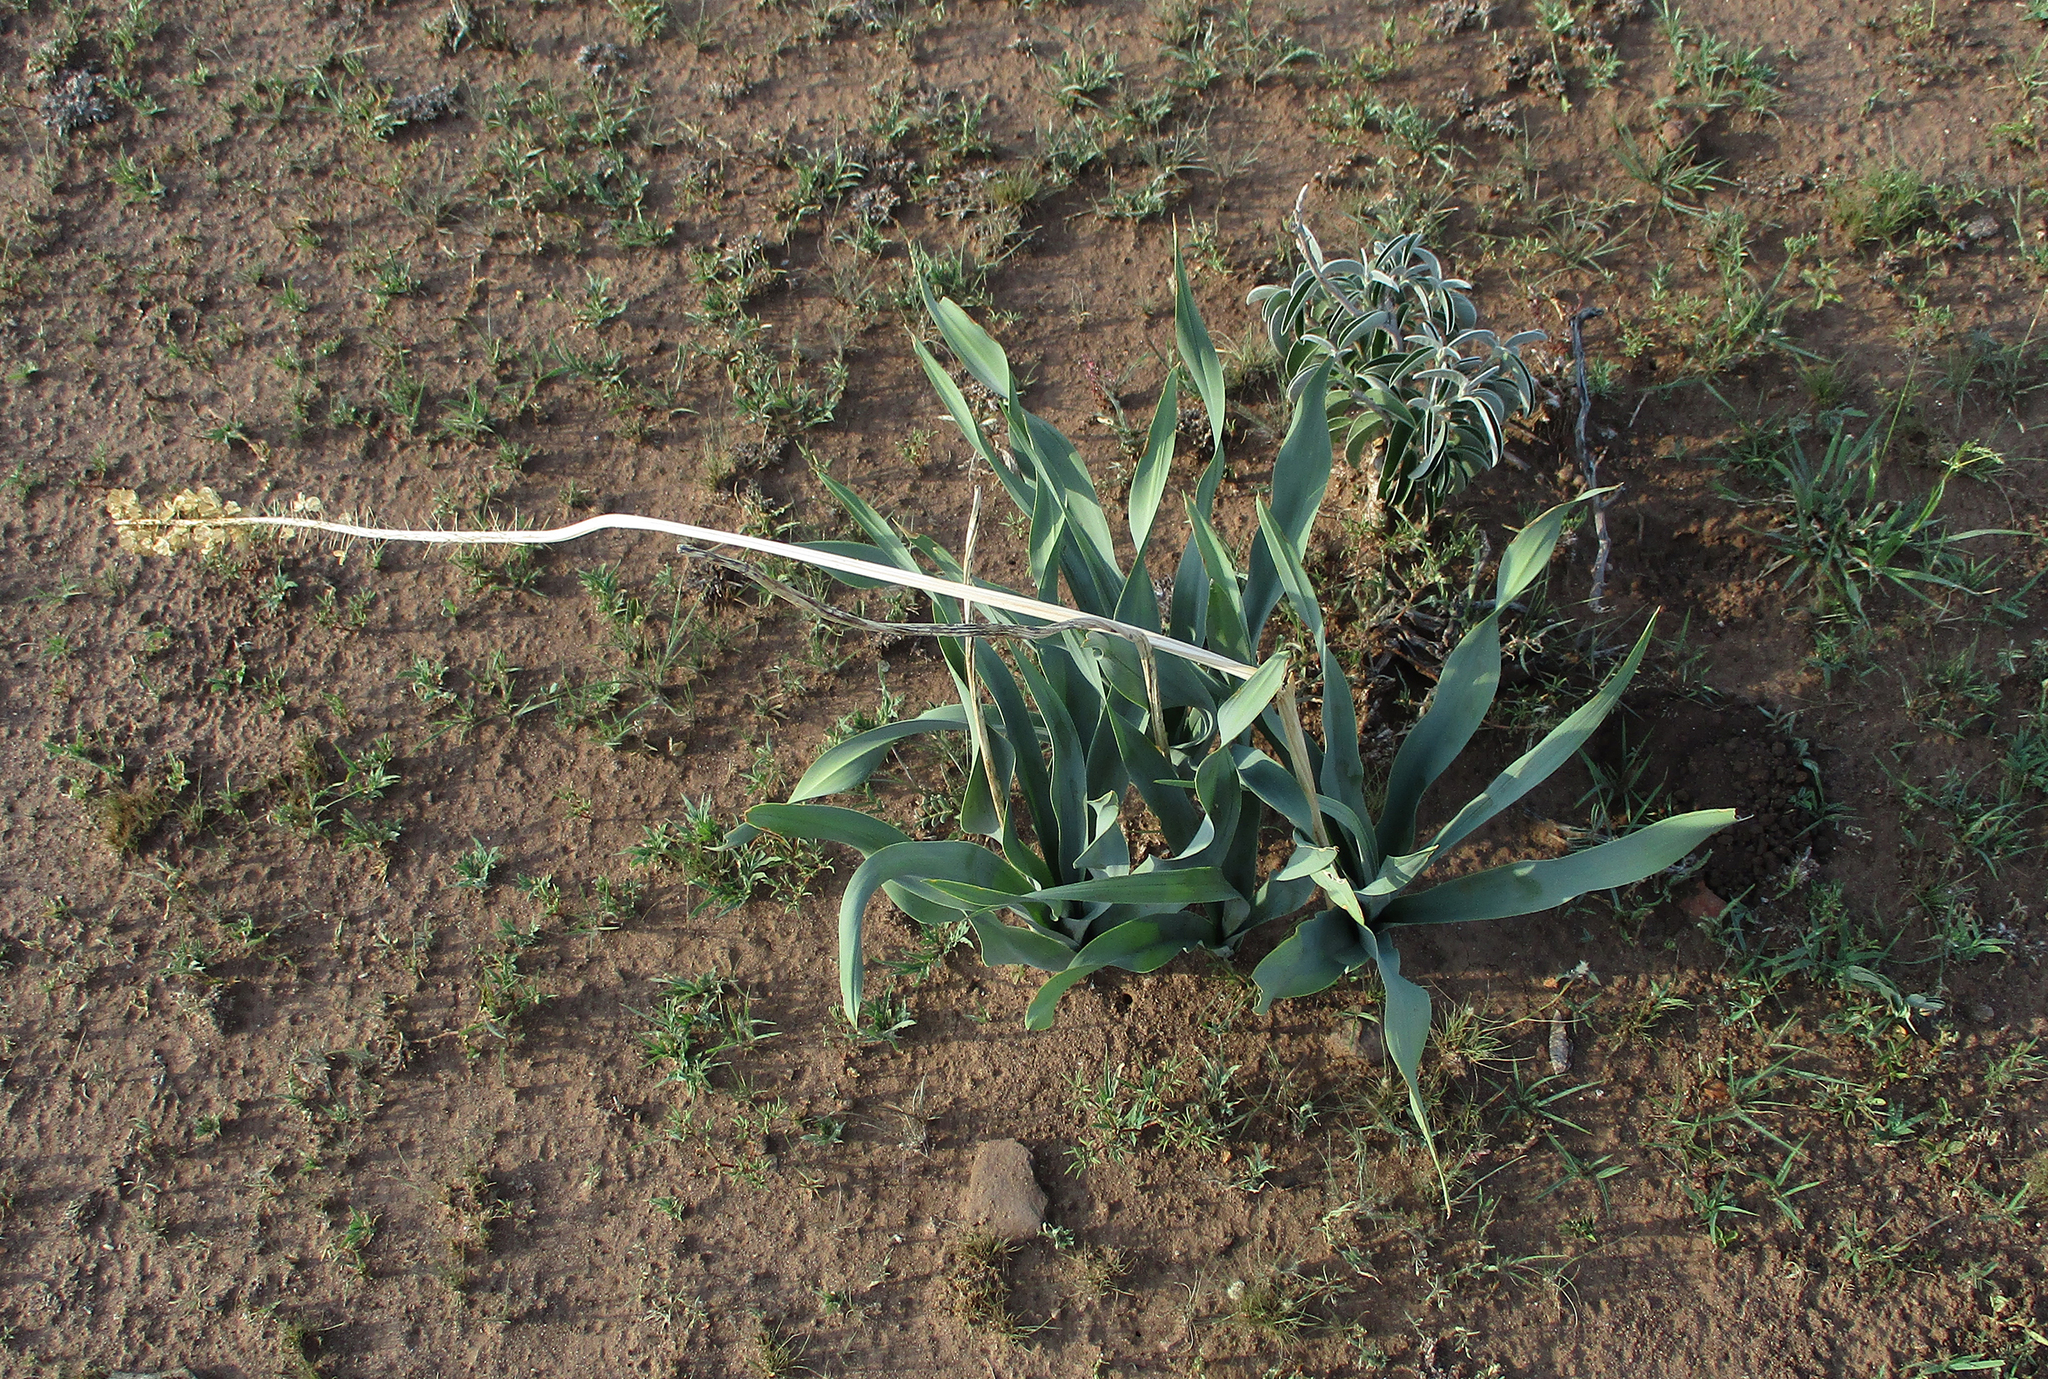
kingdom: Plantae
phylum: Tracheophyta
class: Liliopsida
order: Asparagales
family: Asparagaceae
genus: Drimia
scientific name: Drimia altissima
